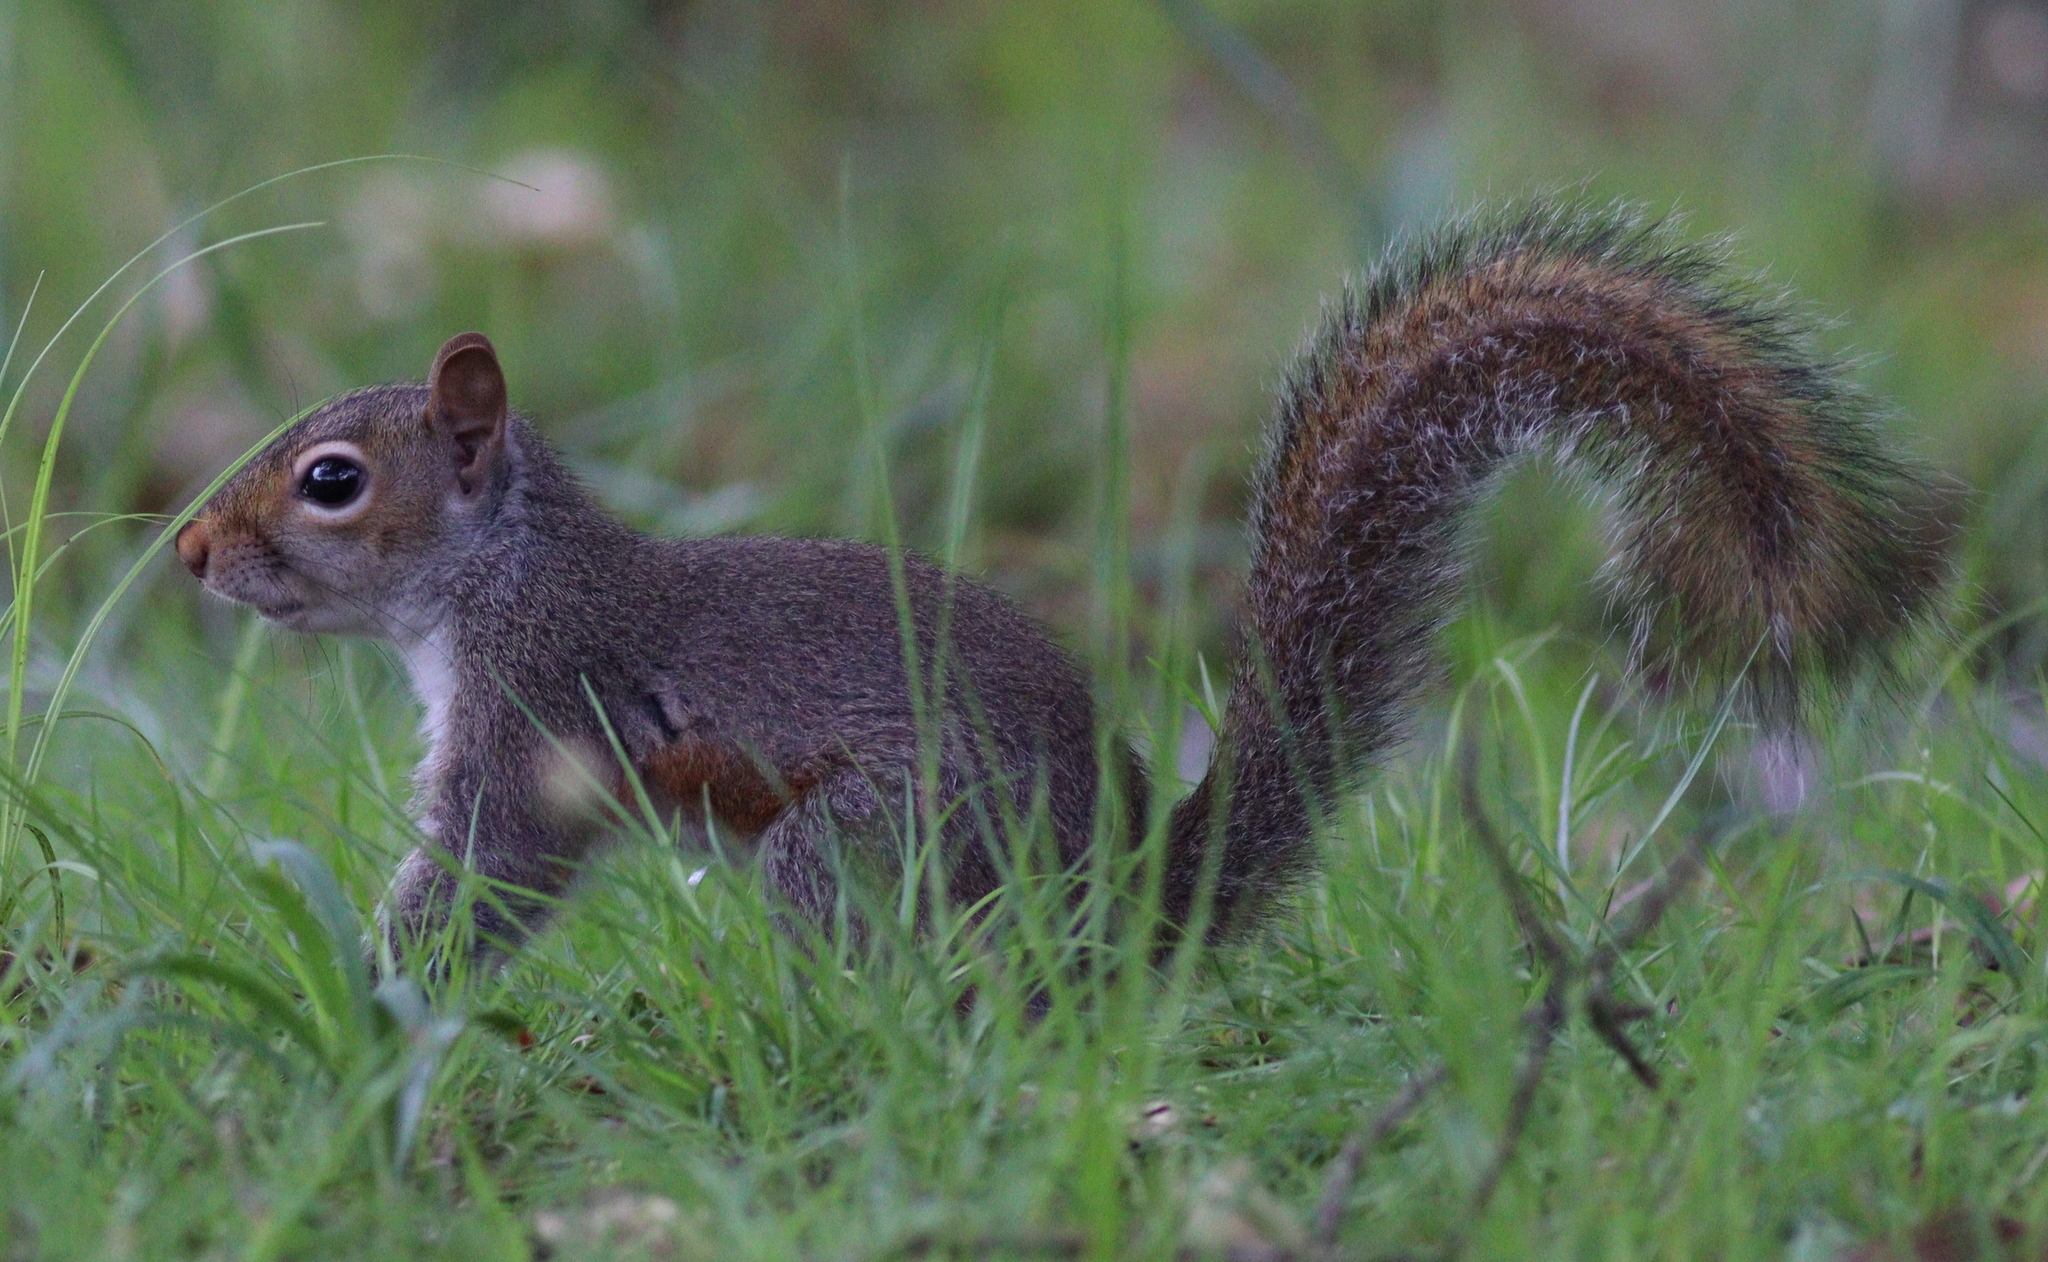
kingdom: Animalia
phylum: Chordata
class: Mammalia
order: Rodentia
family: Sciuridae
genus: Sciurus
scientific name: Sciurus carolinensis
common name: Eastern gray squirrel
